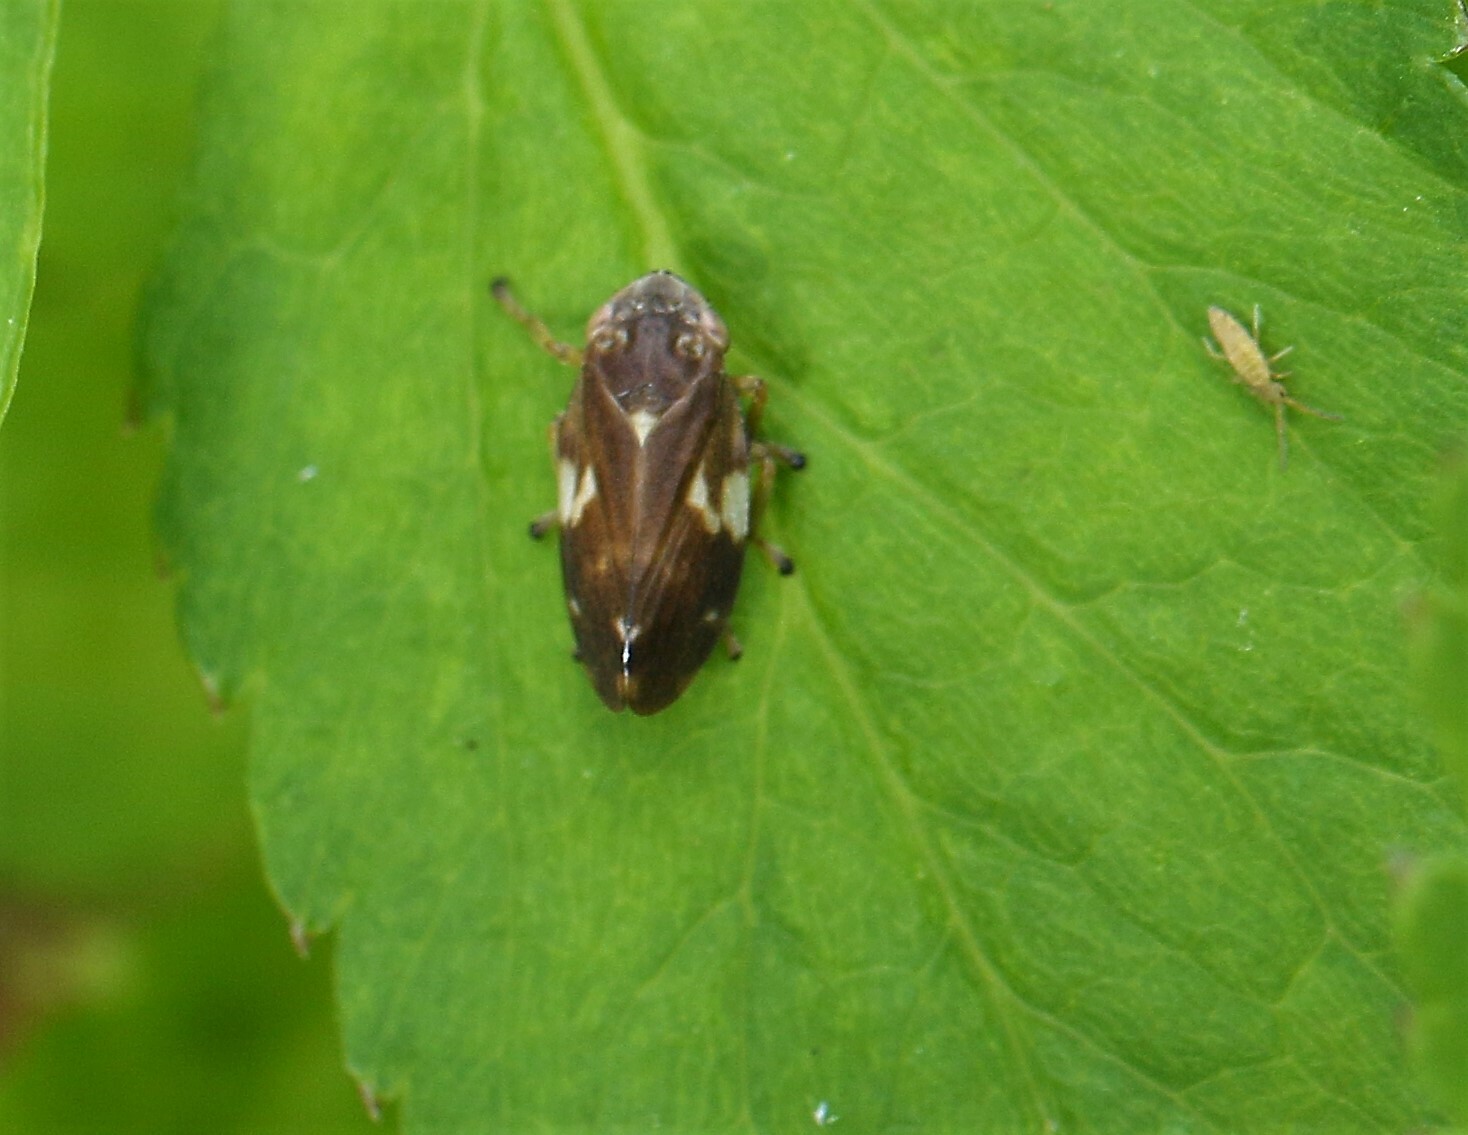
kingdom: Animalia
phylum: Arthropoda
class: Insecta
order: Hemiptera
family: Aphrophoridae
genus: Aphrophora
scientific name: Aphrophora alni
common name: European alder spittlebug
